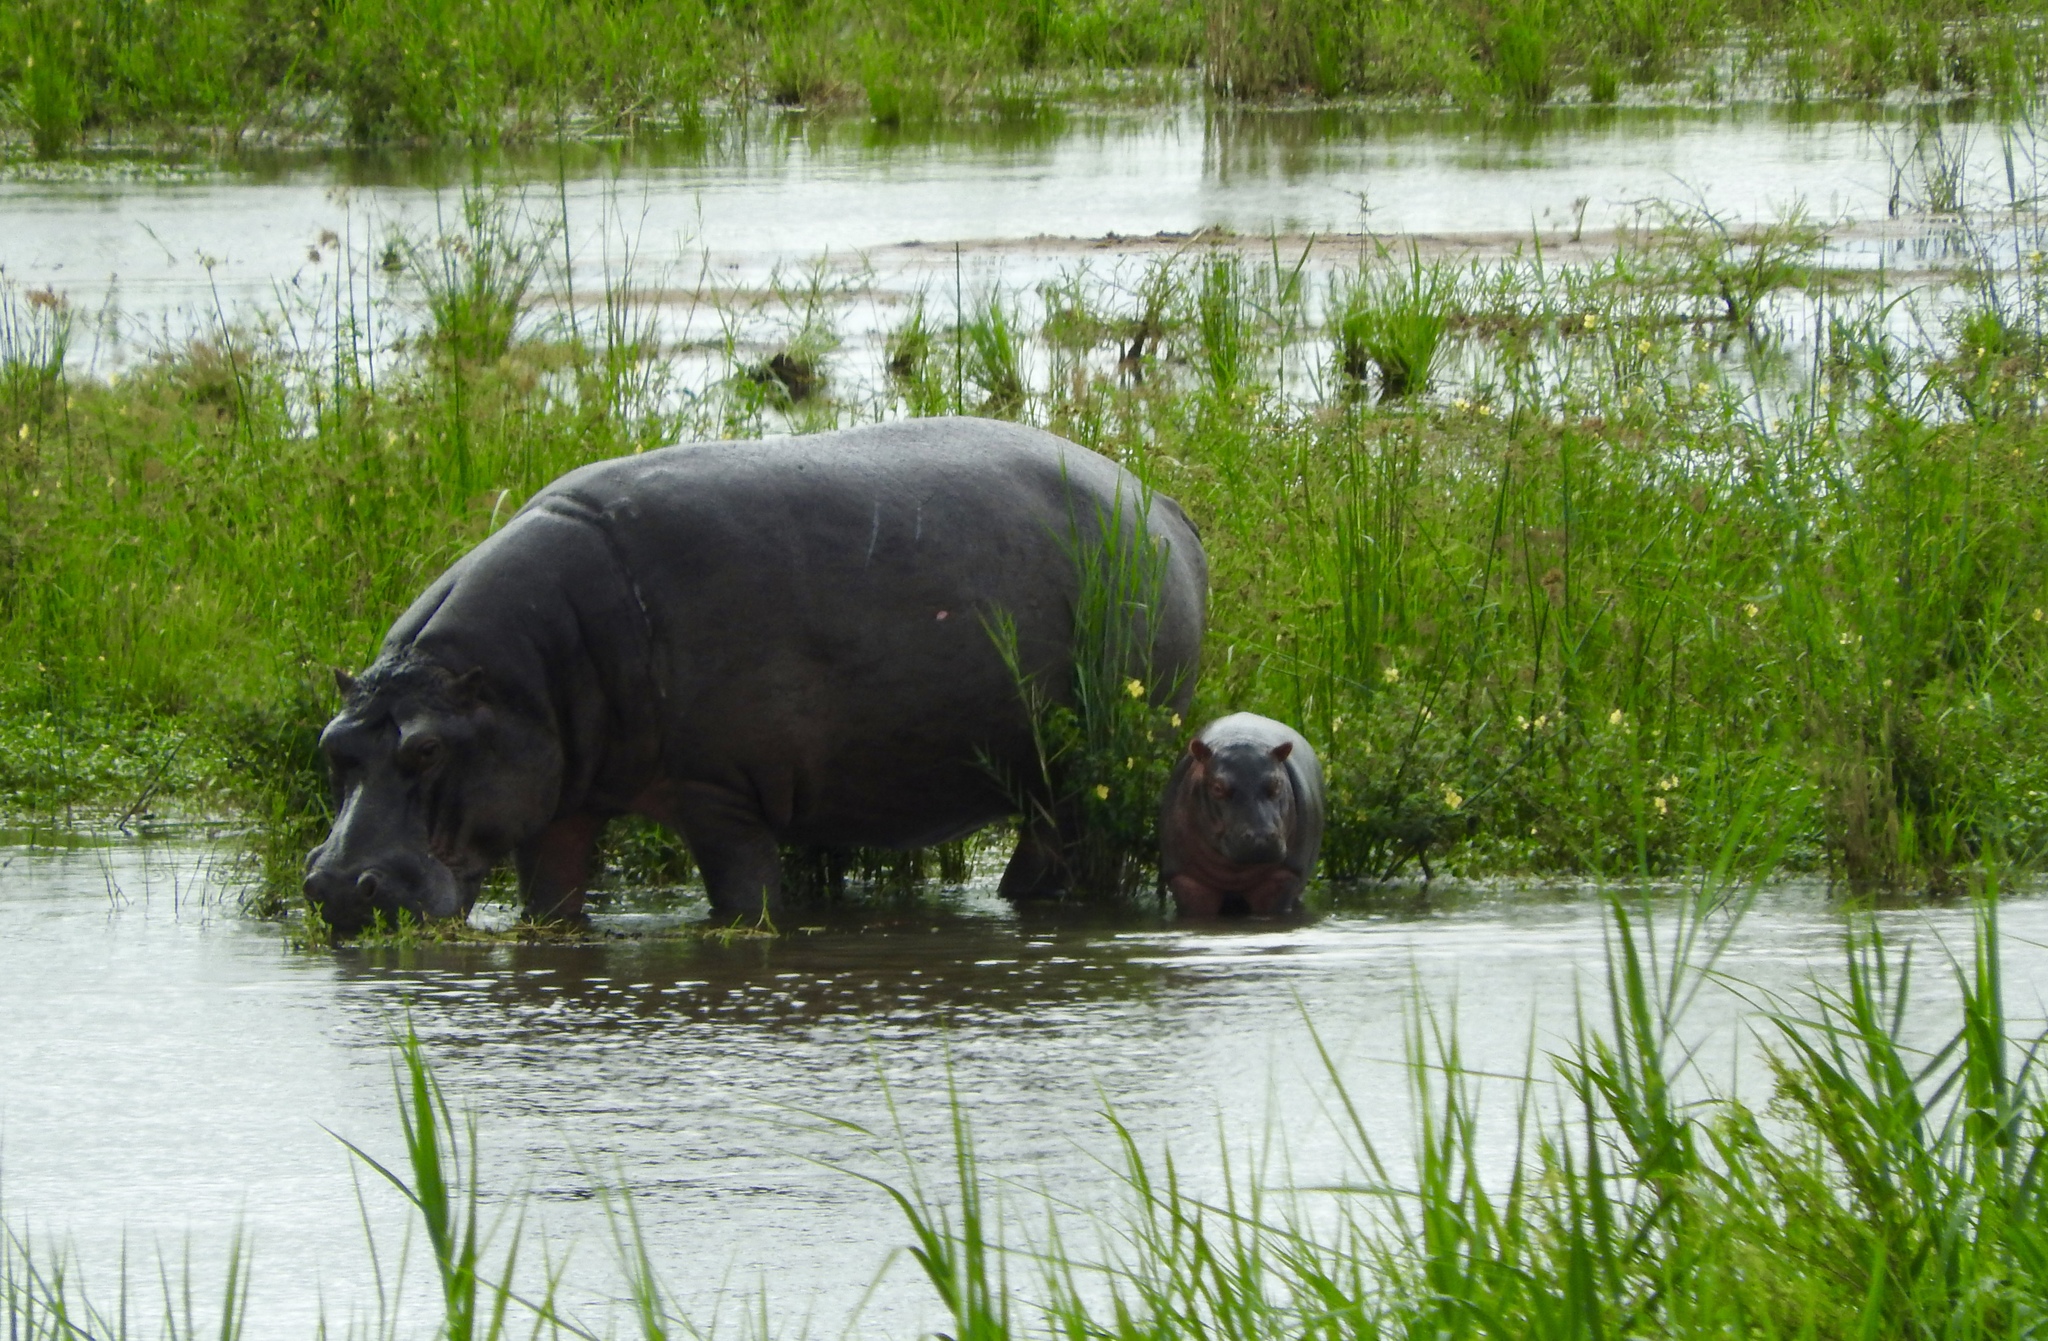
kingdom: Animalia
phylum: Chordata
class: Mammalia
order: Artiodactyla
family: Hippopotamidae
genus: Hippopotamus
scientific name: Hippopotamus amphibius
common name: Common hippopotamus
